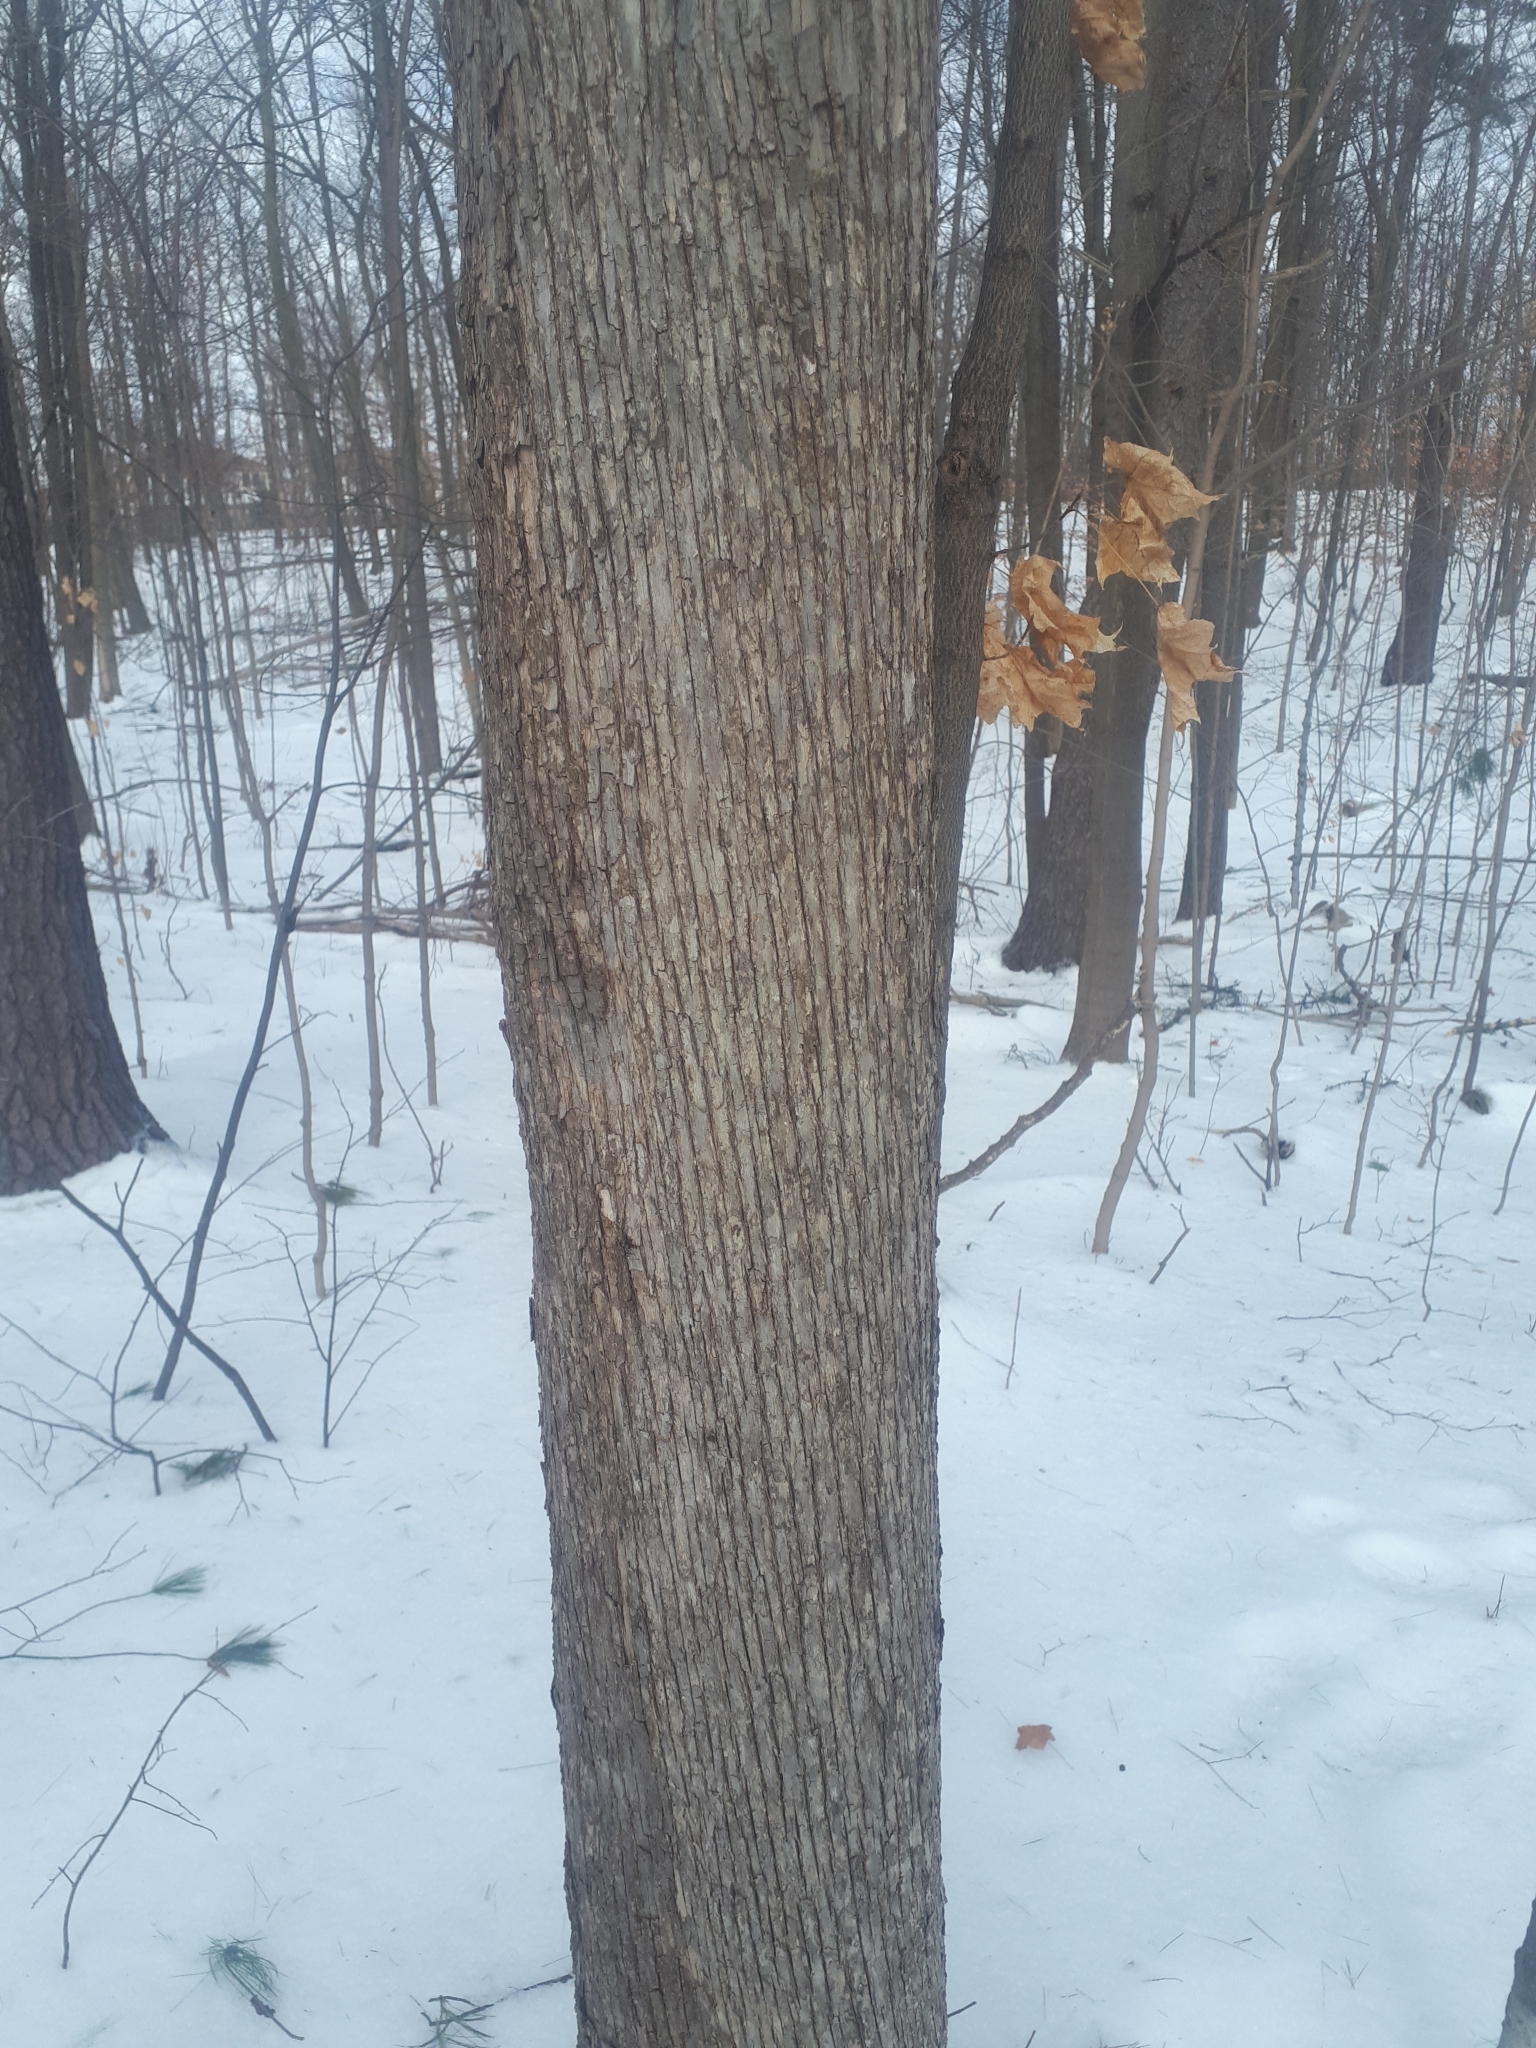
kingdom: Plantae
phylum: Tracheophyta
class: Magnoliopsida
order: Fagales
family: Betulaceae
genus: Ostrya
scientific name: Ostrya virginiana
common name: Ironwood
